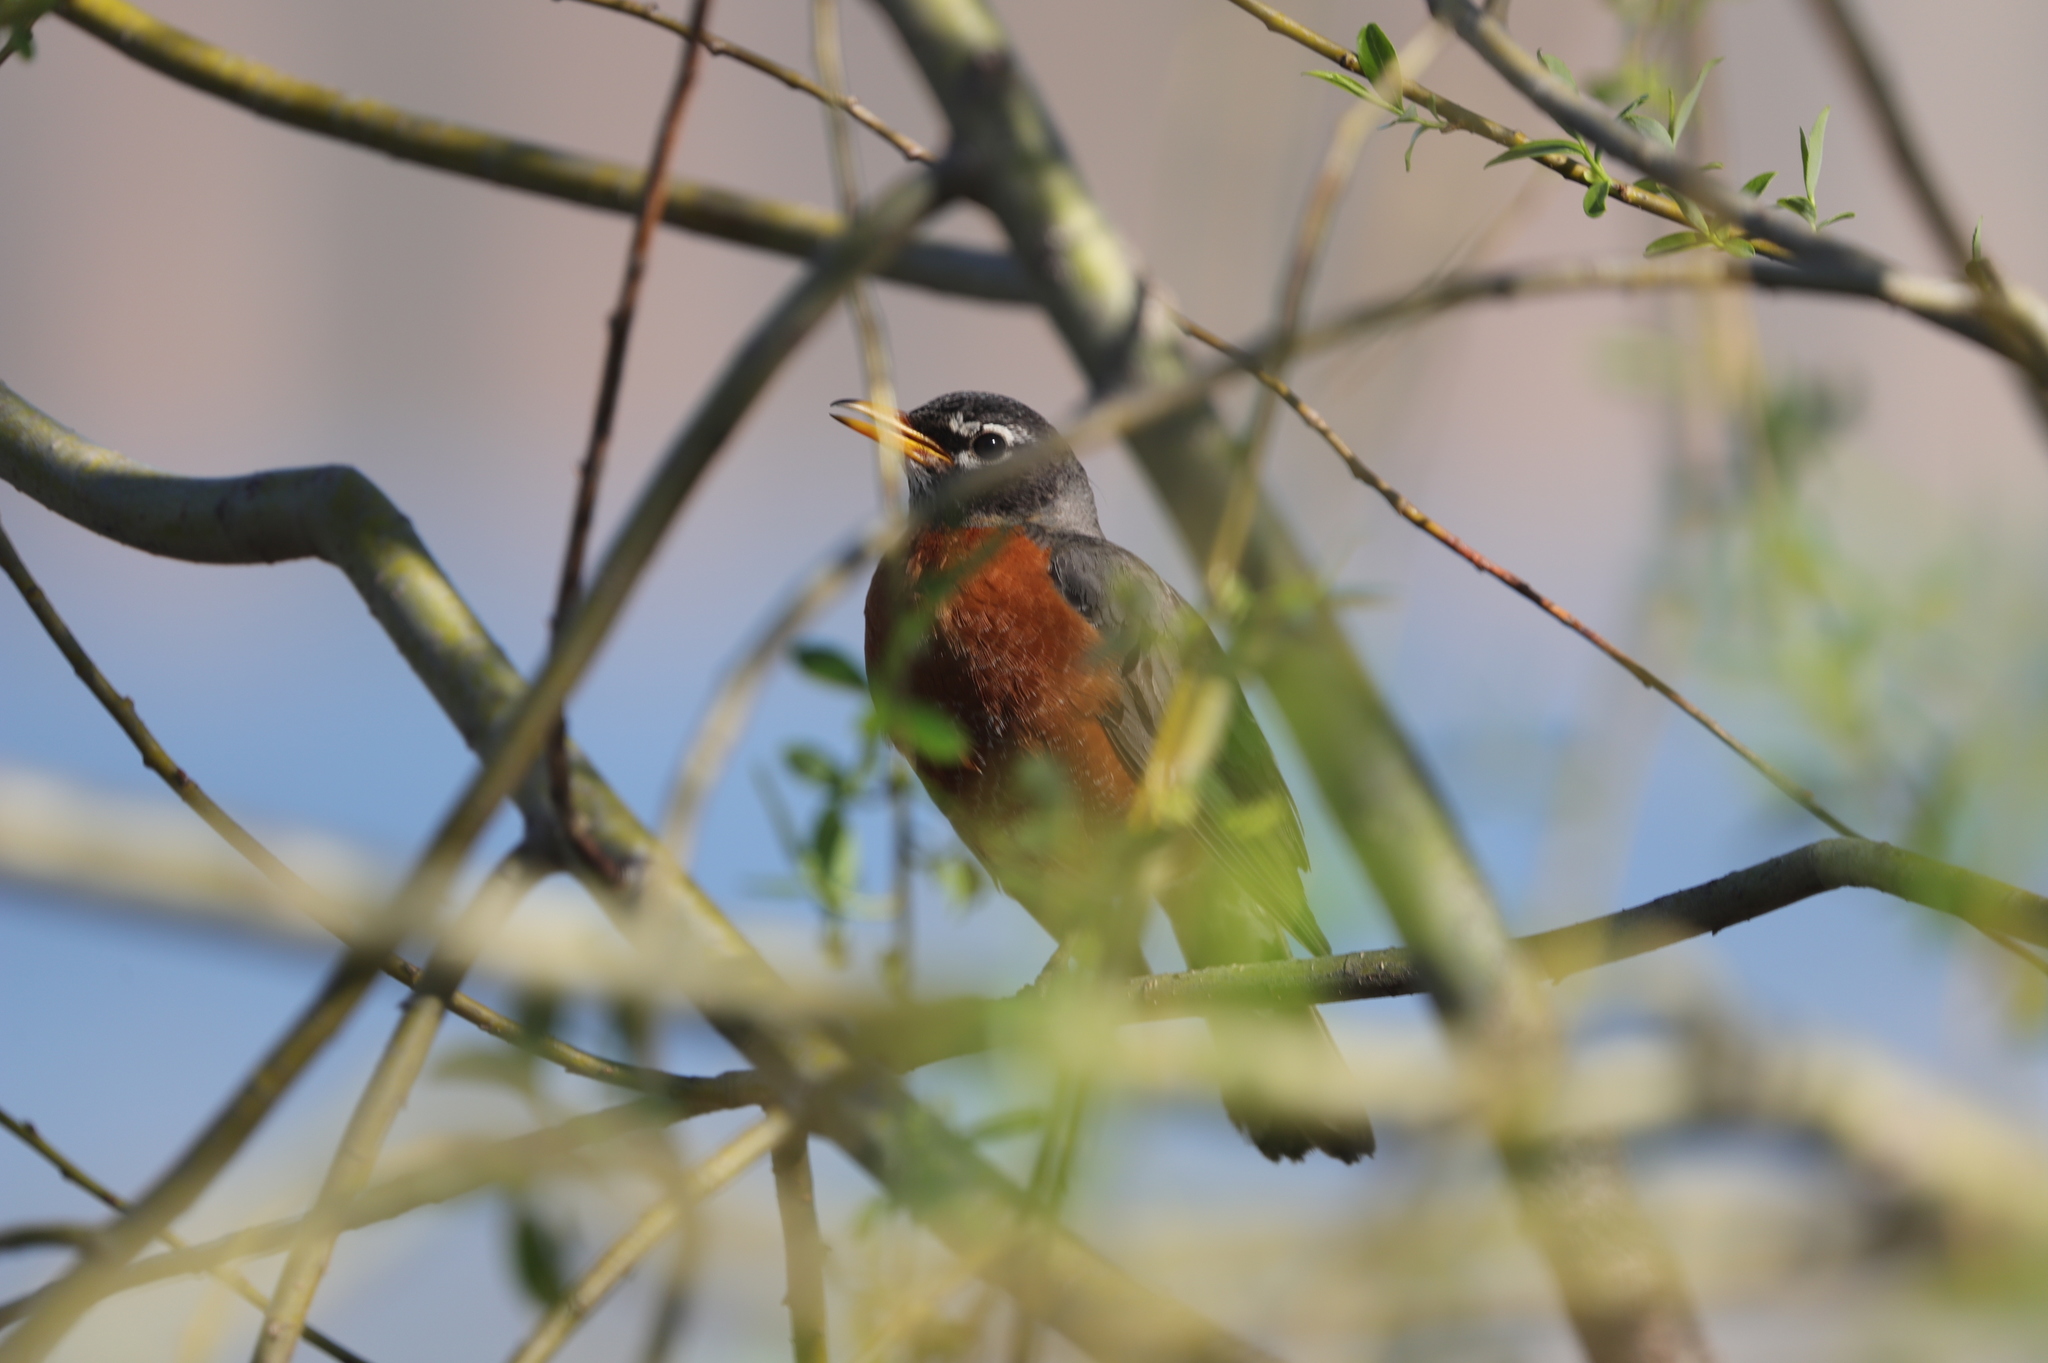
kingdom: Animalia
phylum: Chordata
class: Aves
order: Passeriformes
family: Turdidae
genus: Turdus
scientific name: Turdus migratorius
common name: American robin
